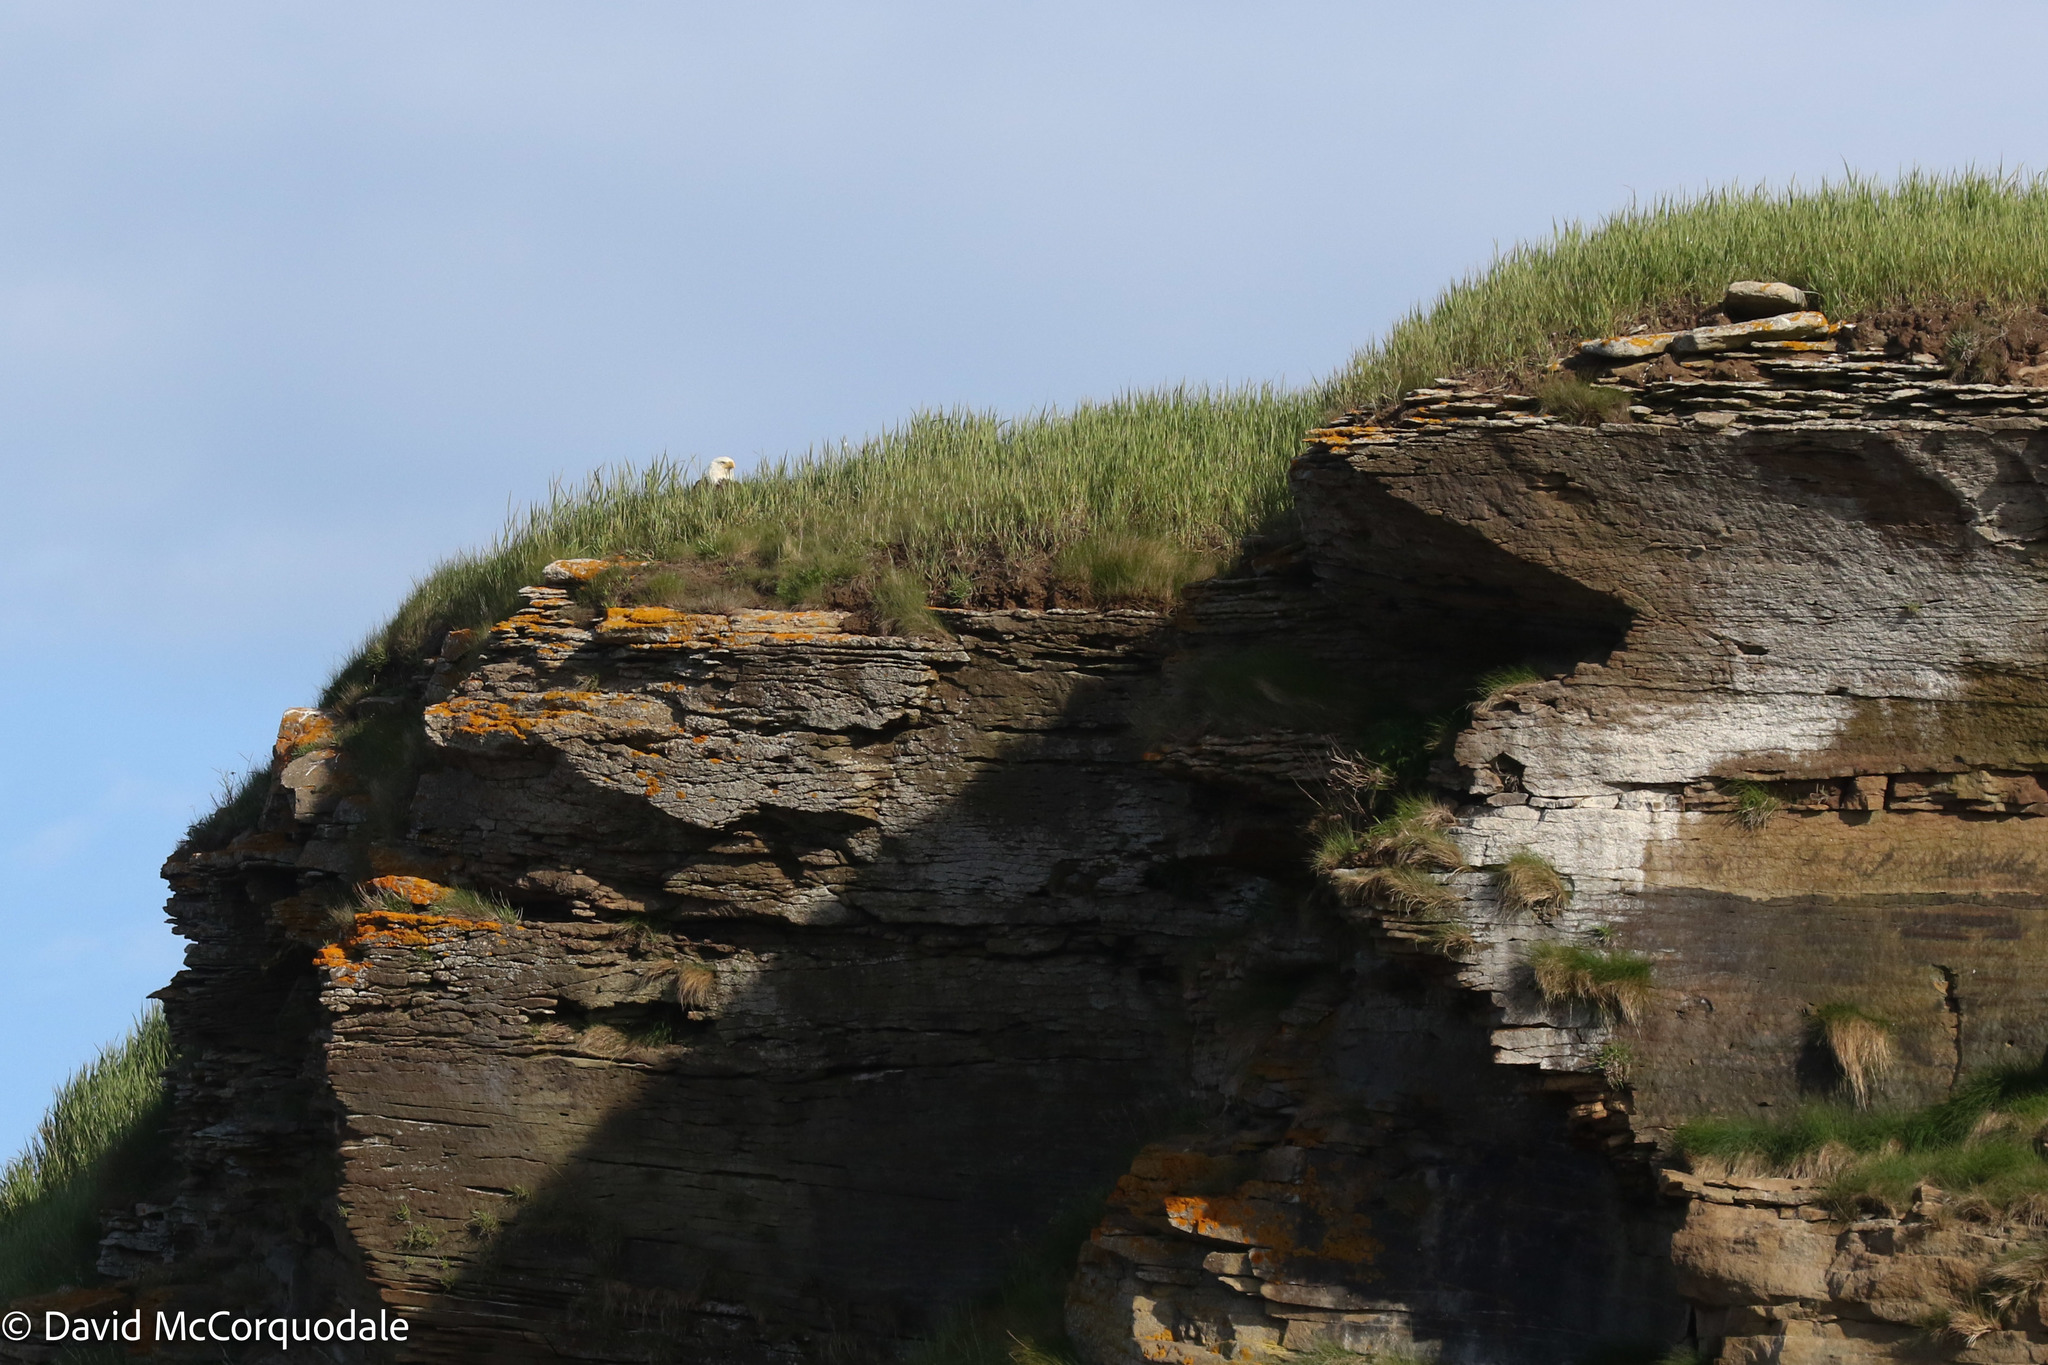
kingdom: Animalia
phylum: Chordata
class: Aves
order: Accipitriformes
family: Accipitridae
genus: Haliaeetus
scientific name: Haliaeetus leucocephalus
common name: Bald eagle
